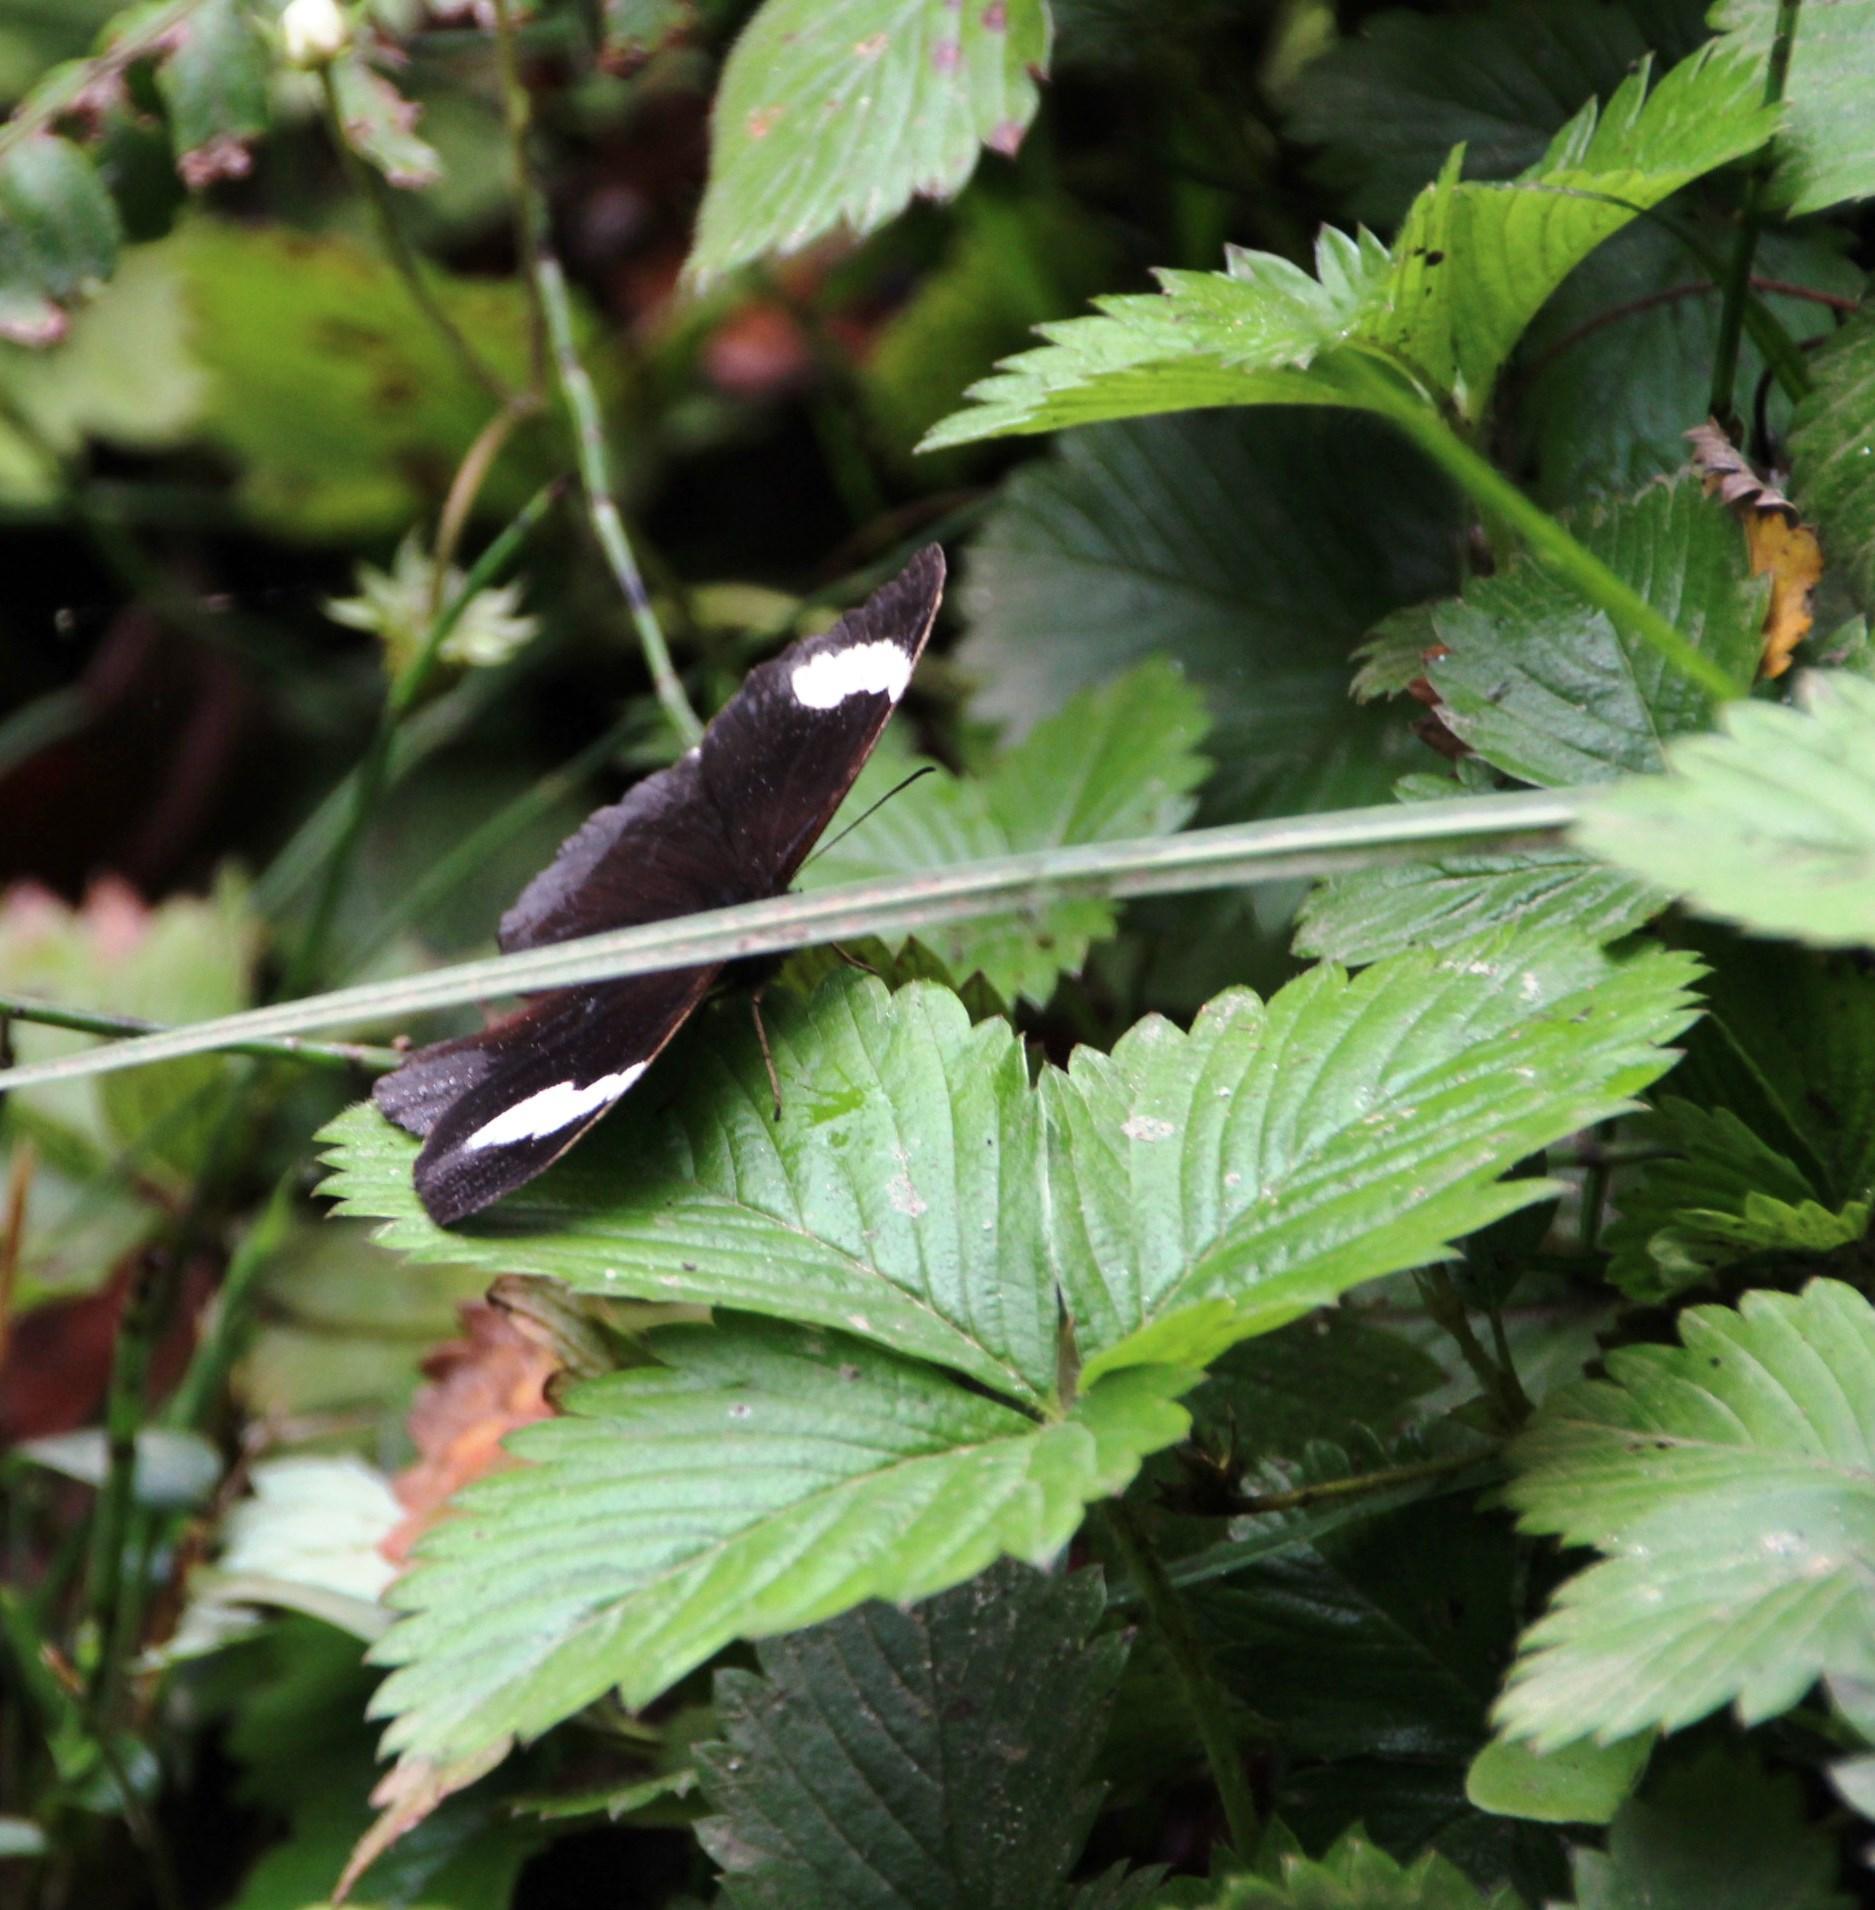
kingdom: Plantae
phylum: Tracheophyta
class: Magnoliopsida
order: Rosales
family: Rosaceae
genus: Fragaria
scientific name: Fragaria vesca
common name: Wild strawberry
